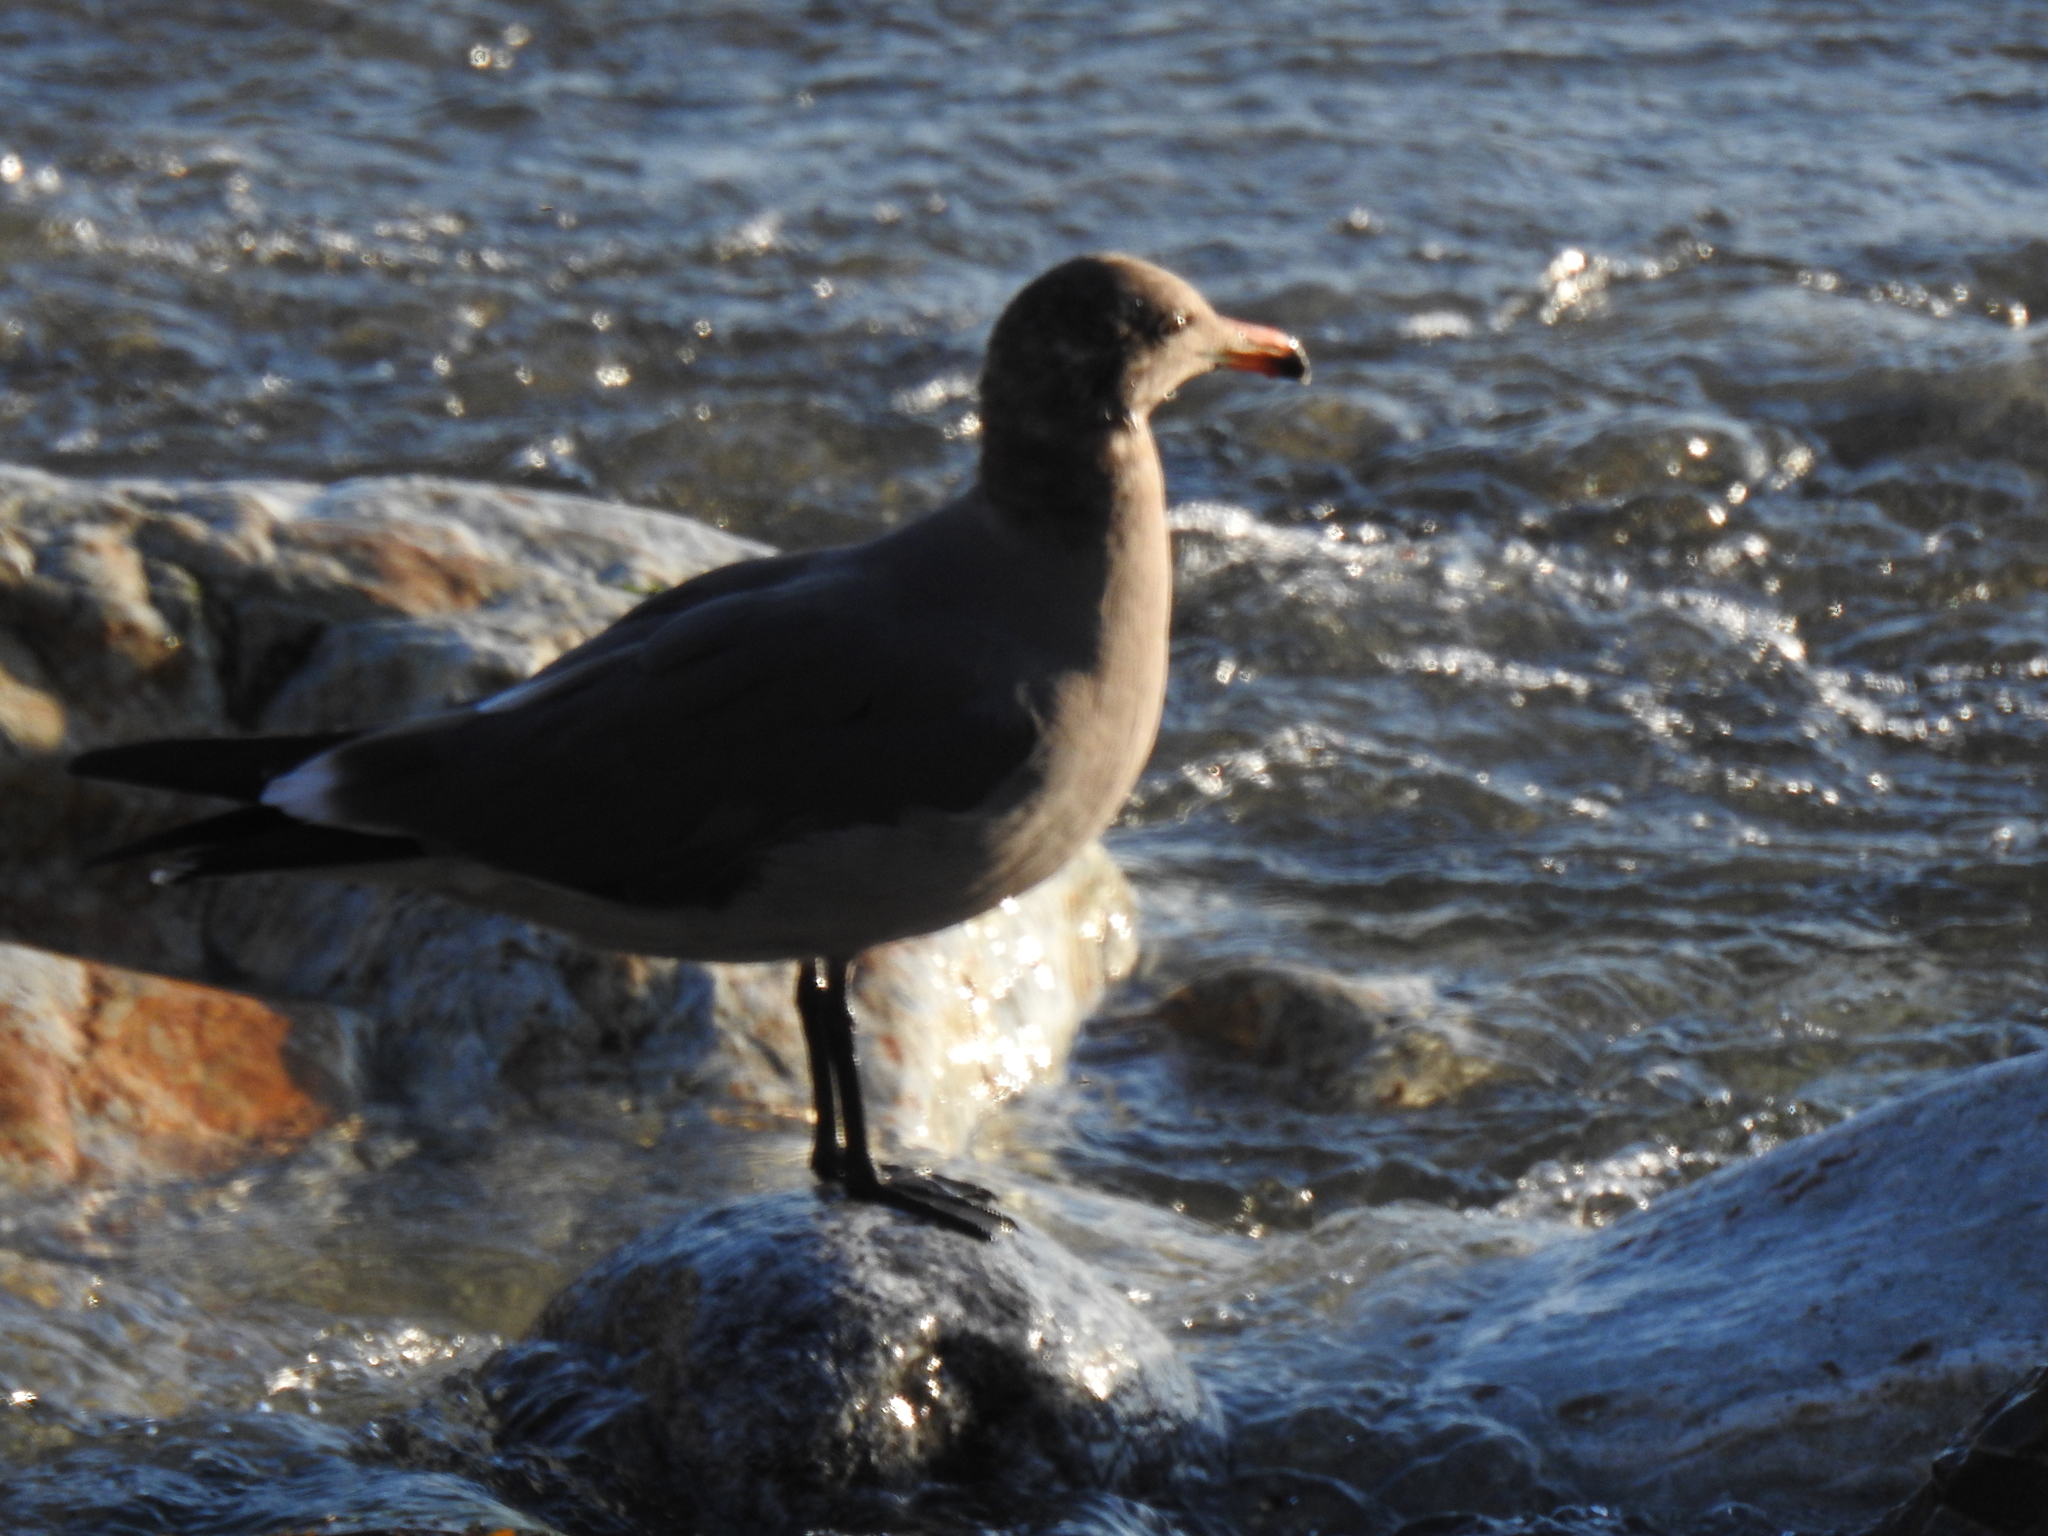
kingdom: Animalia
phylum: Chordata
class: Aves
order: Charadriiformes
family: Laridae
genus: Larus
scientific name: Larus heermanni
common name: Heermann's gull
